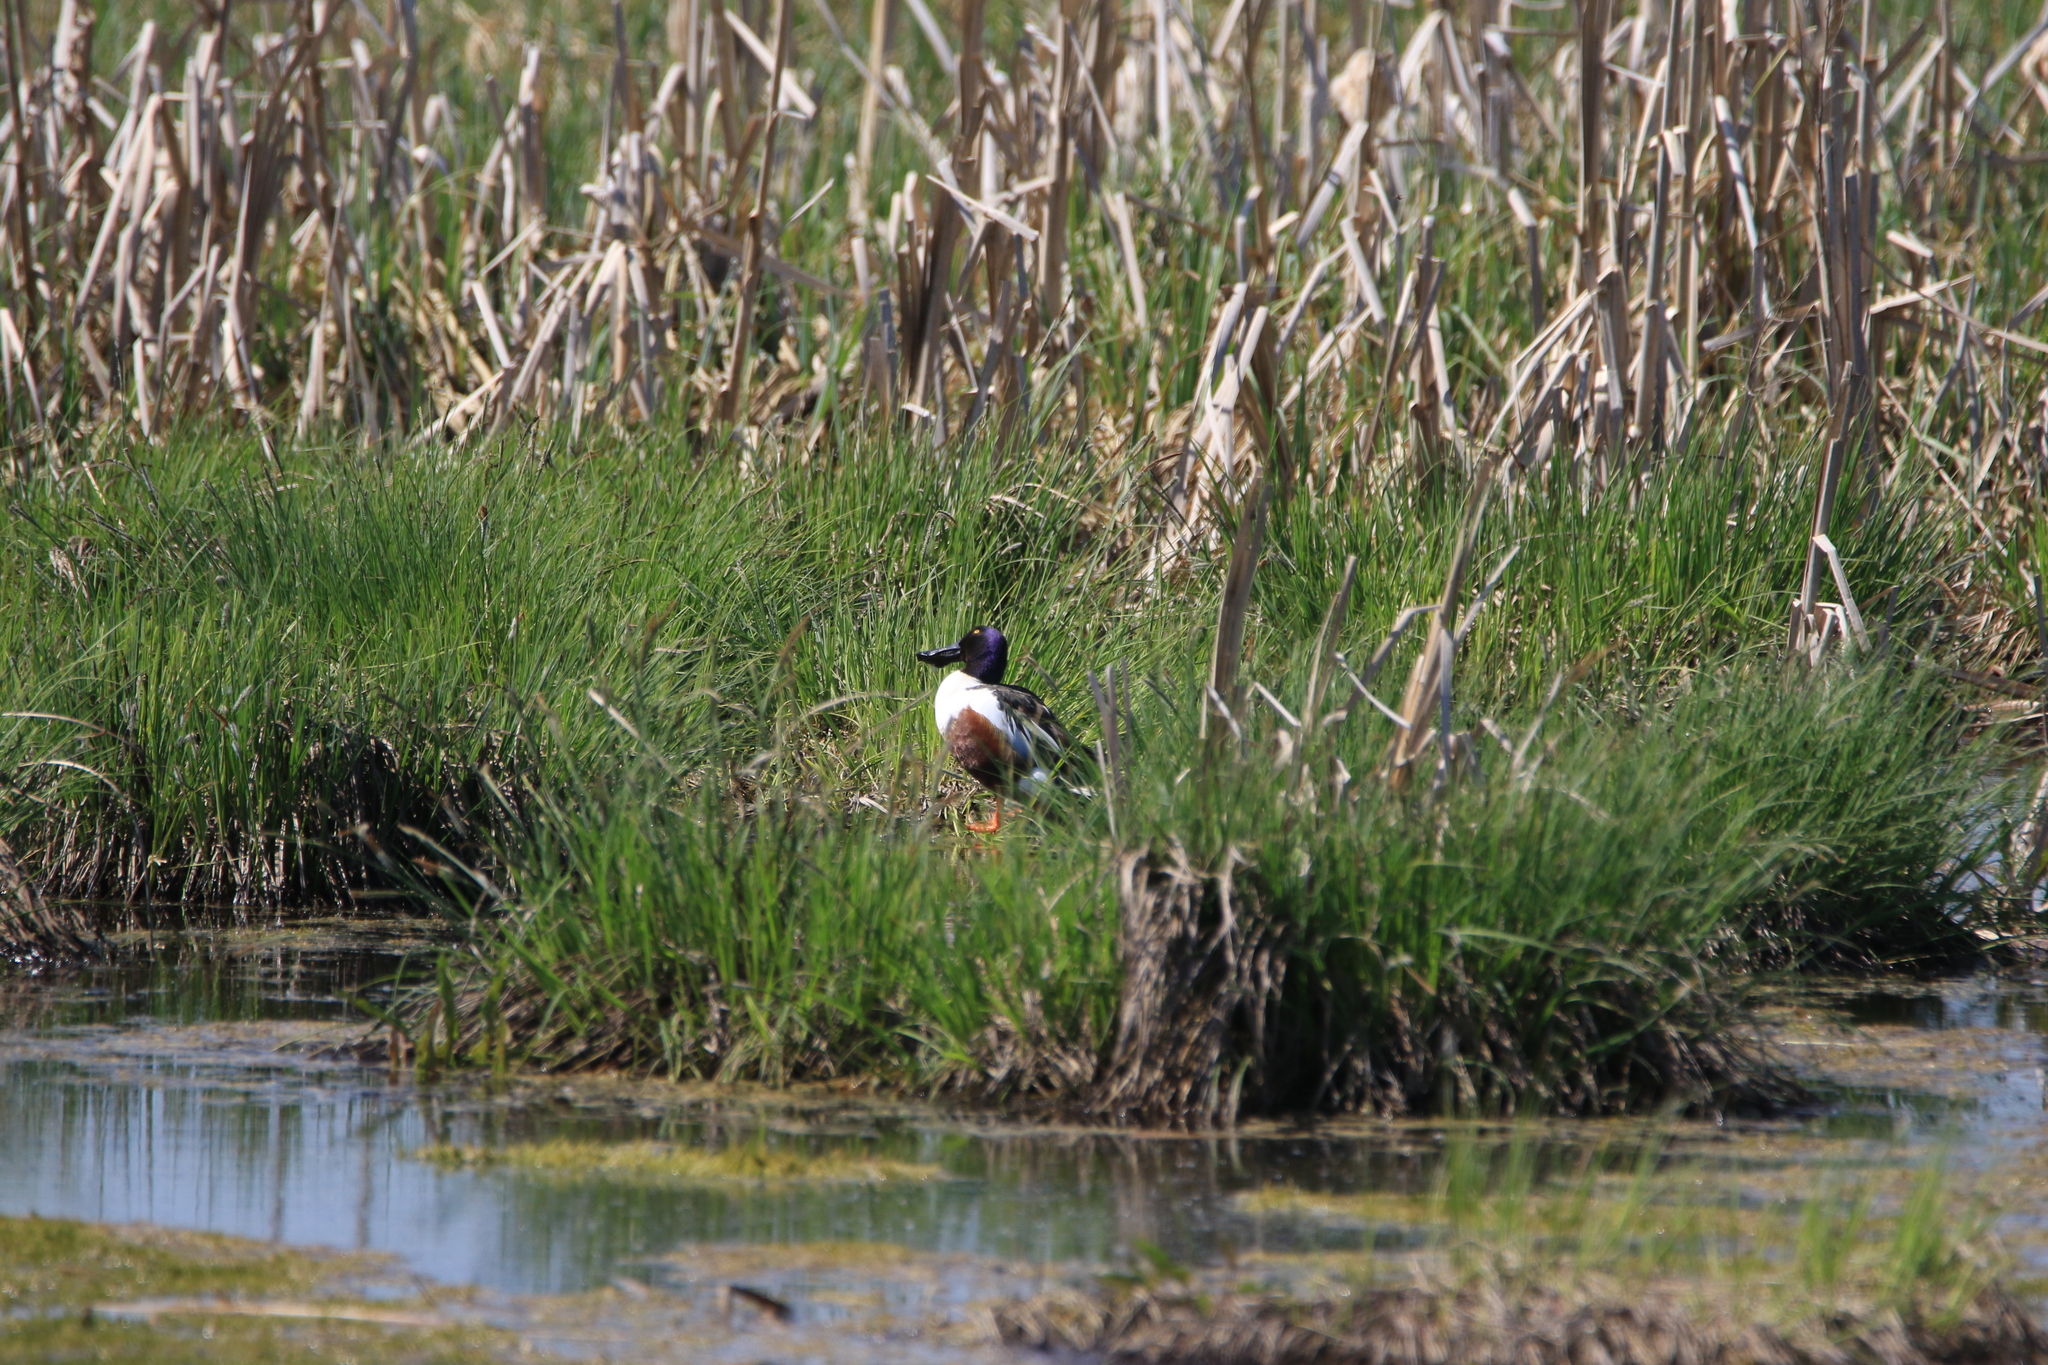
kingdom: Animalia
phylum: Chordata
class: Aves
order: Anseriformes
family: Anatidae
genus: Spatula
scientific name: Spatula clypeata
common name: Northern shoveler
